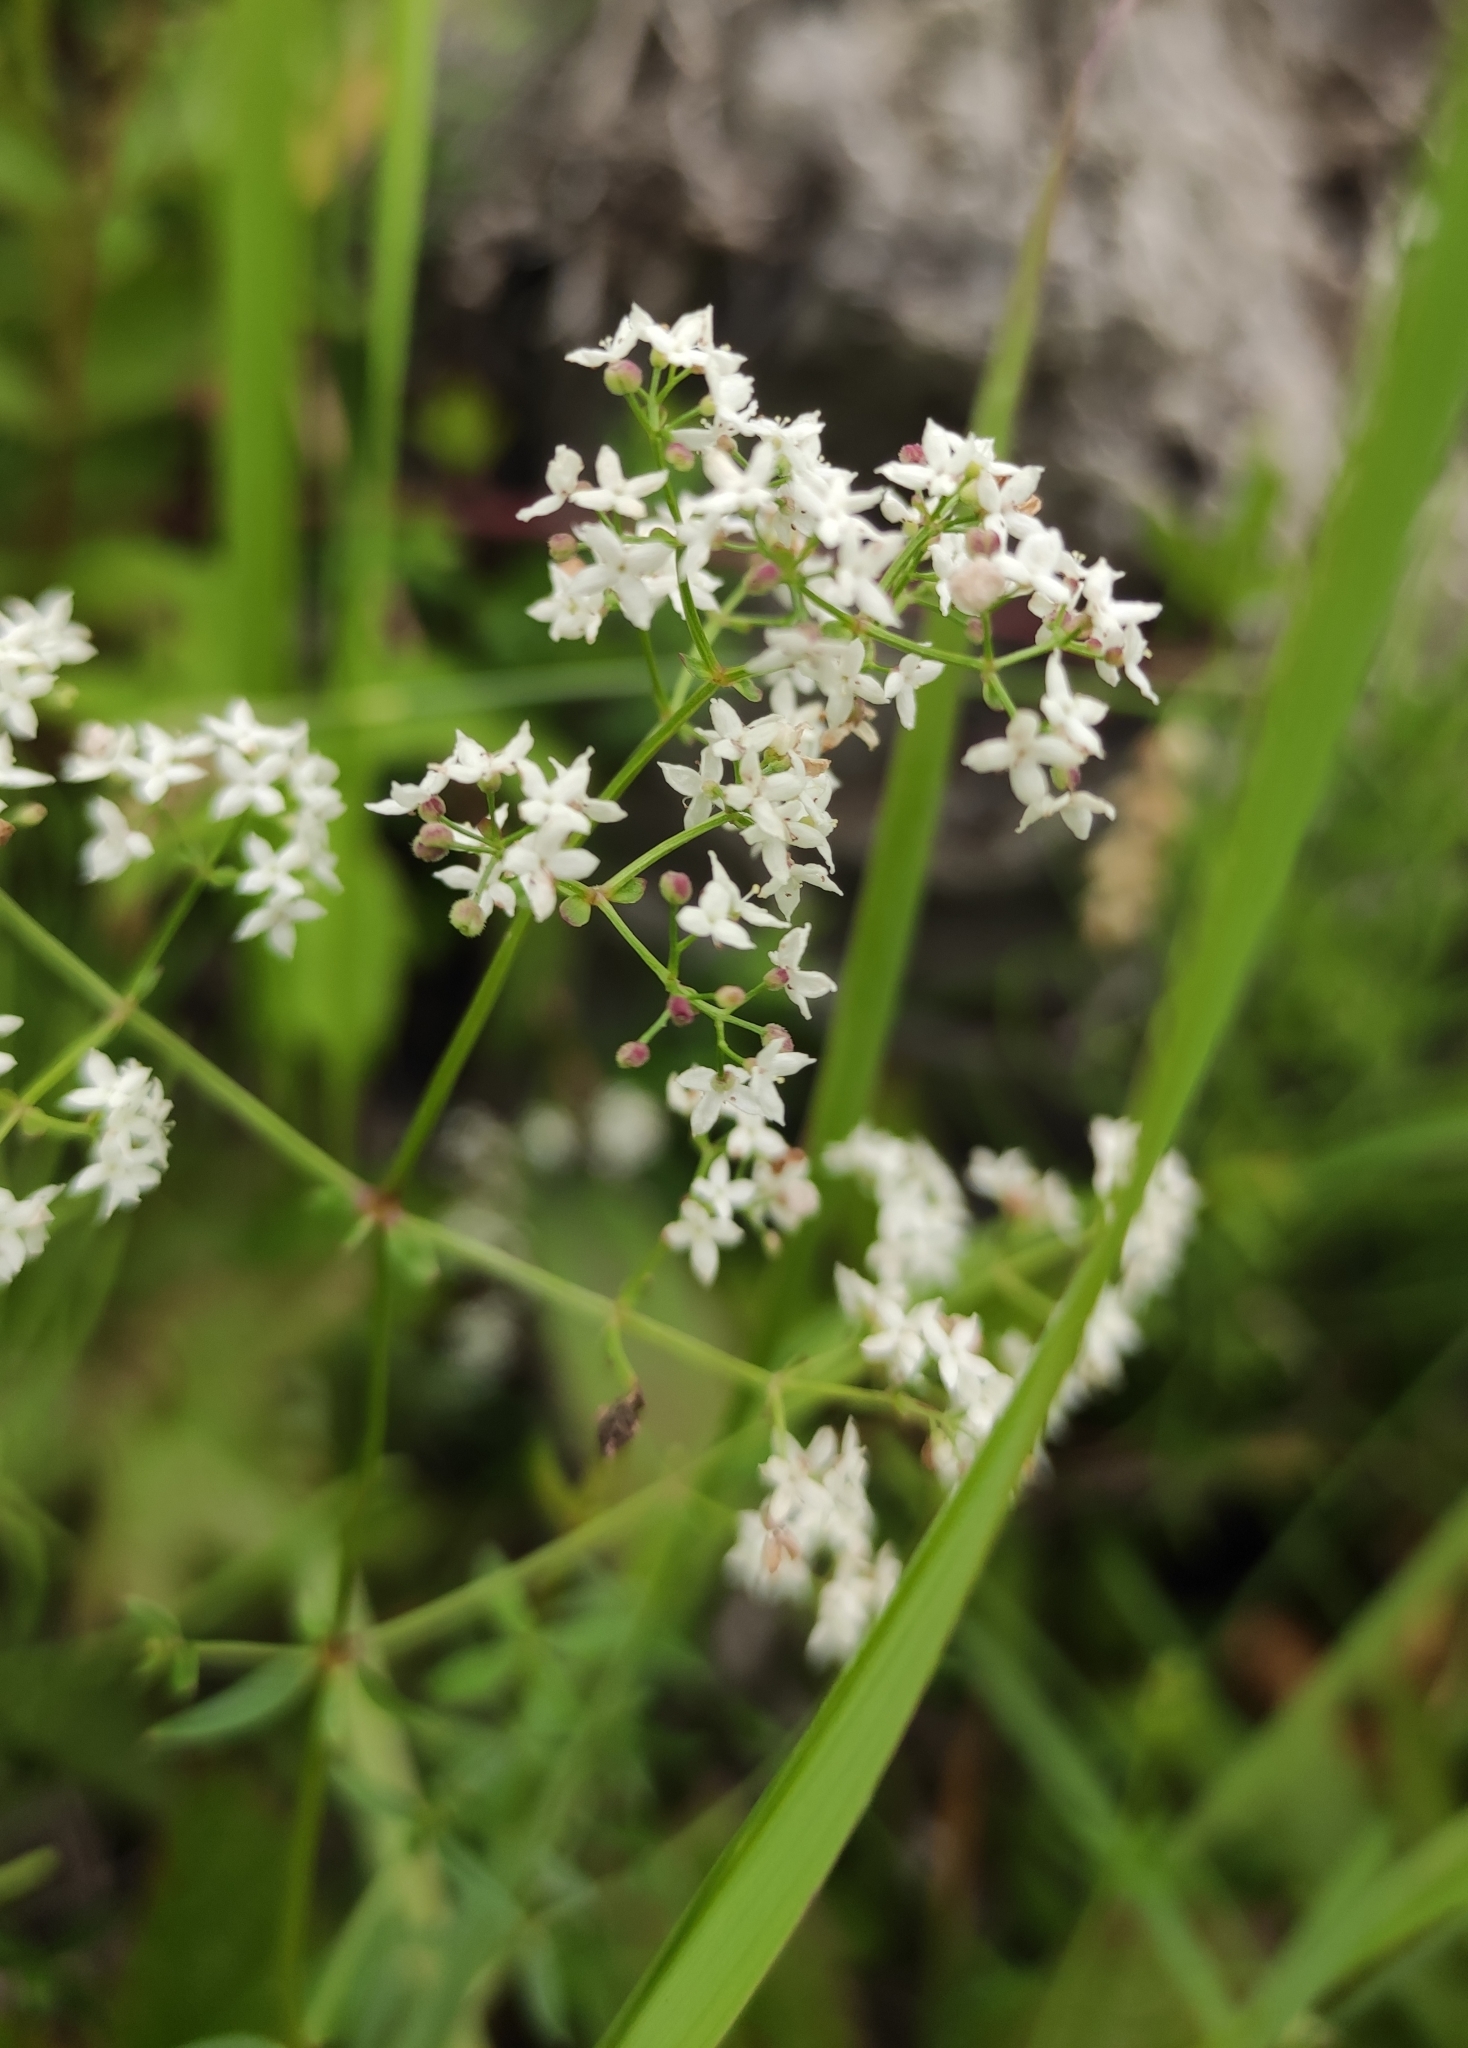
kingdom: Plantae
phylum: Tracheophyta
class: Magnoliopsida
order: Gentianales
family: Rubiaceae
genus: Galium
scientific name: Galium boreale
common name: Northern bedstraw
